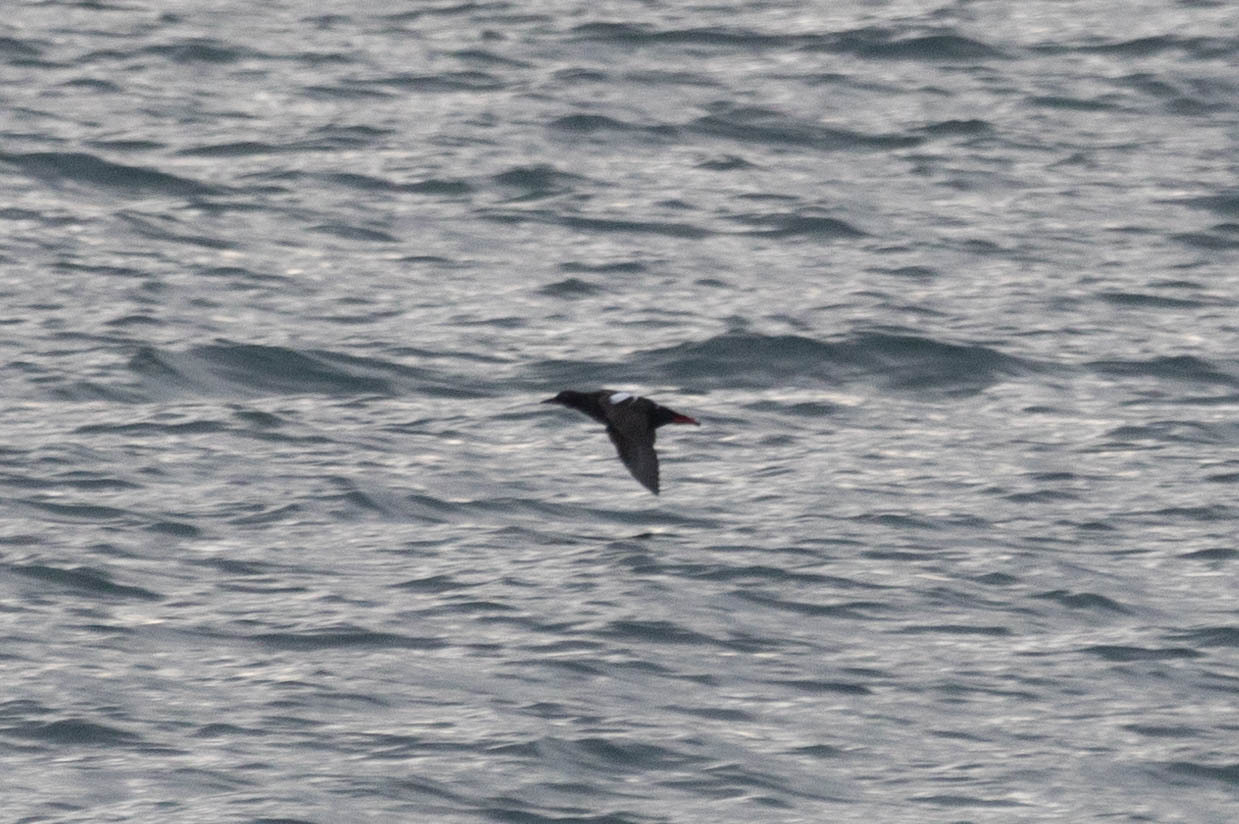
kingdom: Animalia
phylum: Chordata
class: Aves
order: Charadriiformes
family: Alcidae
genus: Cepphus
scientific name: Cepphus columba
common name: Pigeon guillemot
